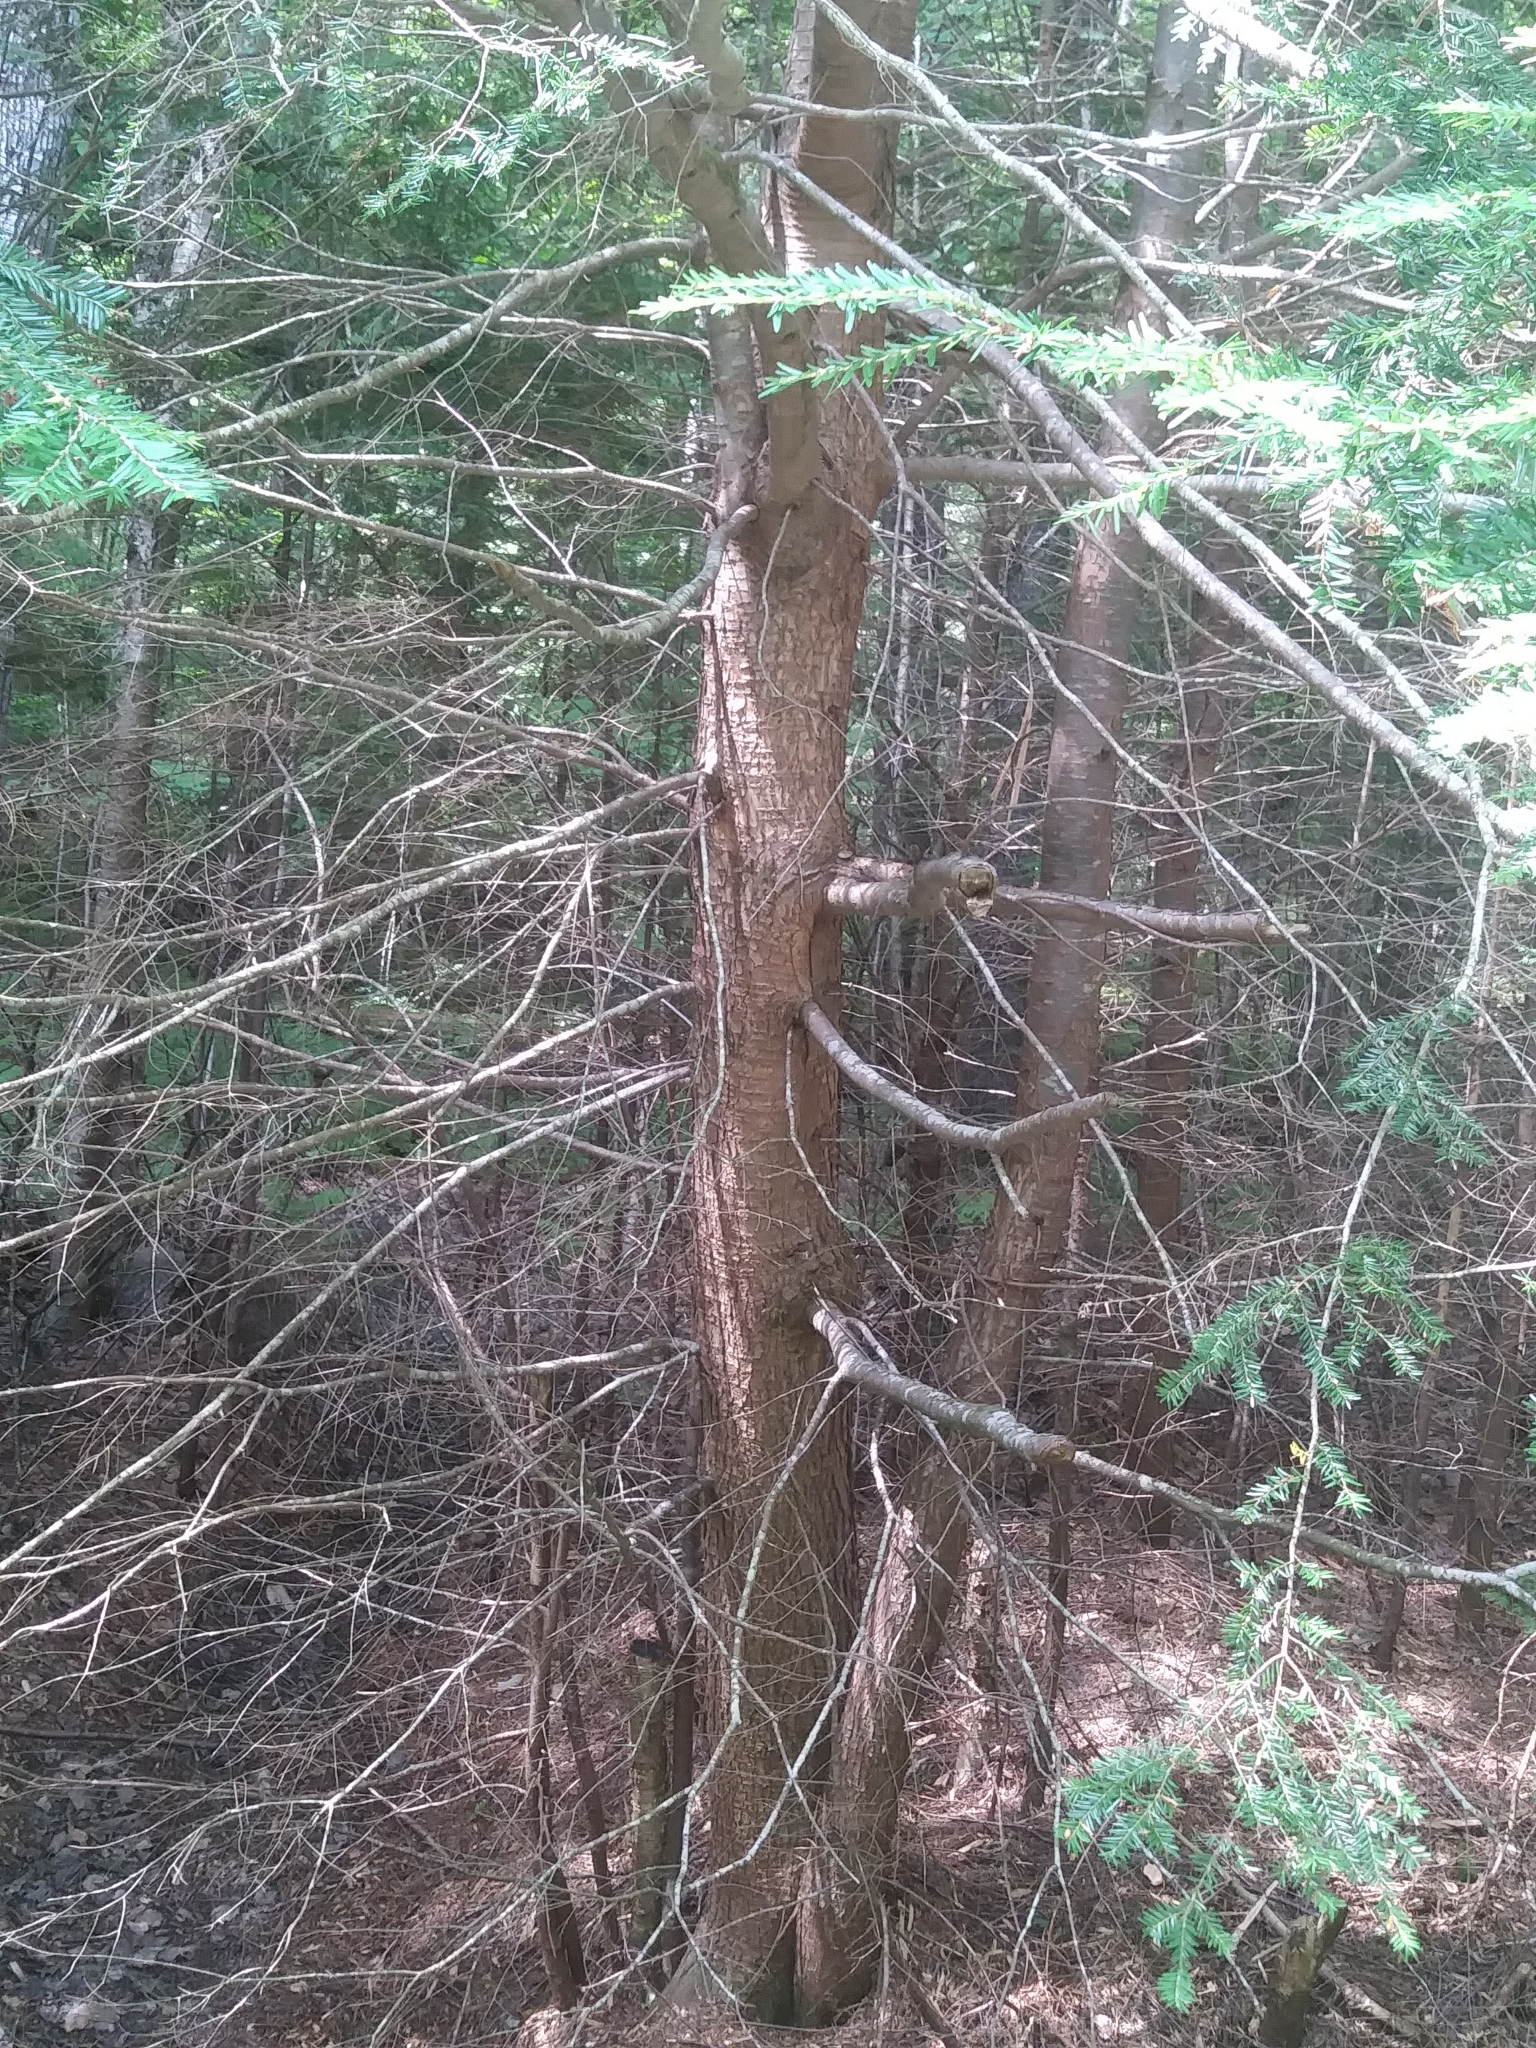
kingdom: Plantae
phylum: Tracheophyta
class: Pinopsida
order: Pinales
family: Pinaceae
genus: Tsuga
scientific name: Tsuga canadensis
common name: Eastern hemlock
